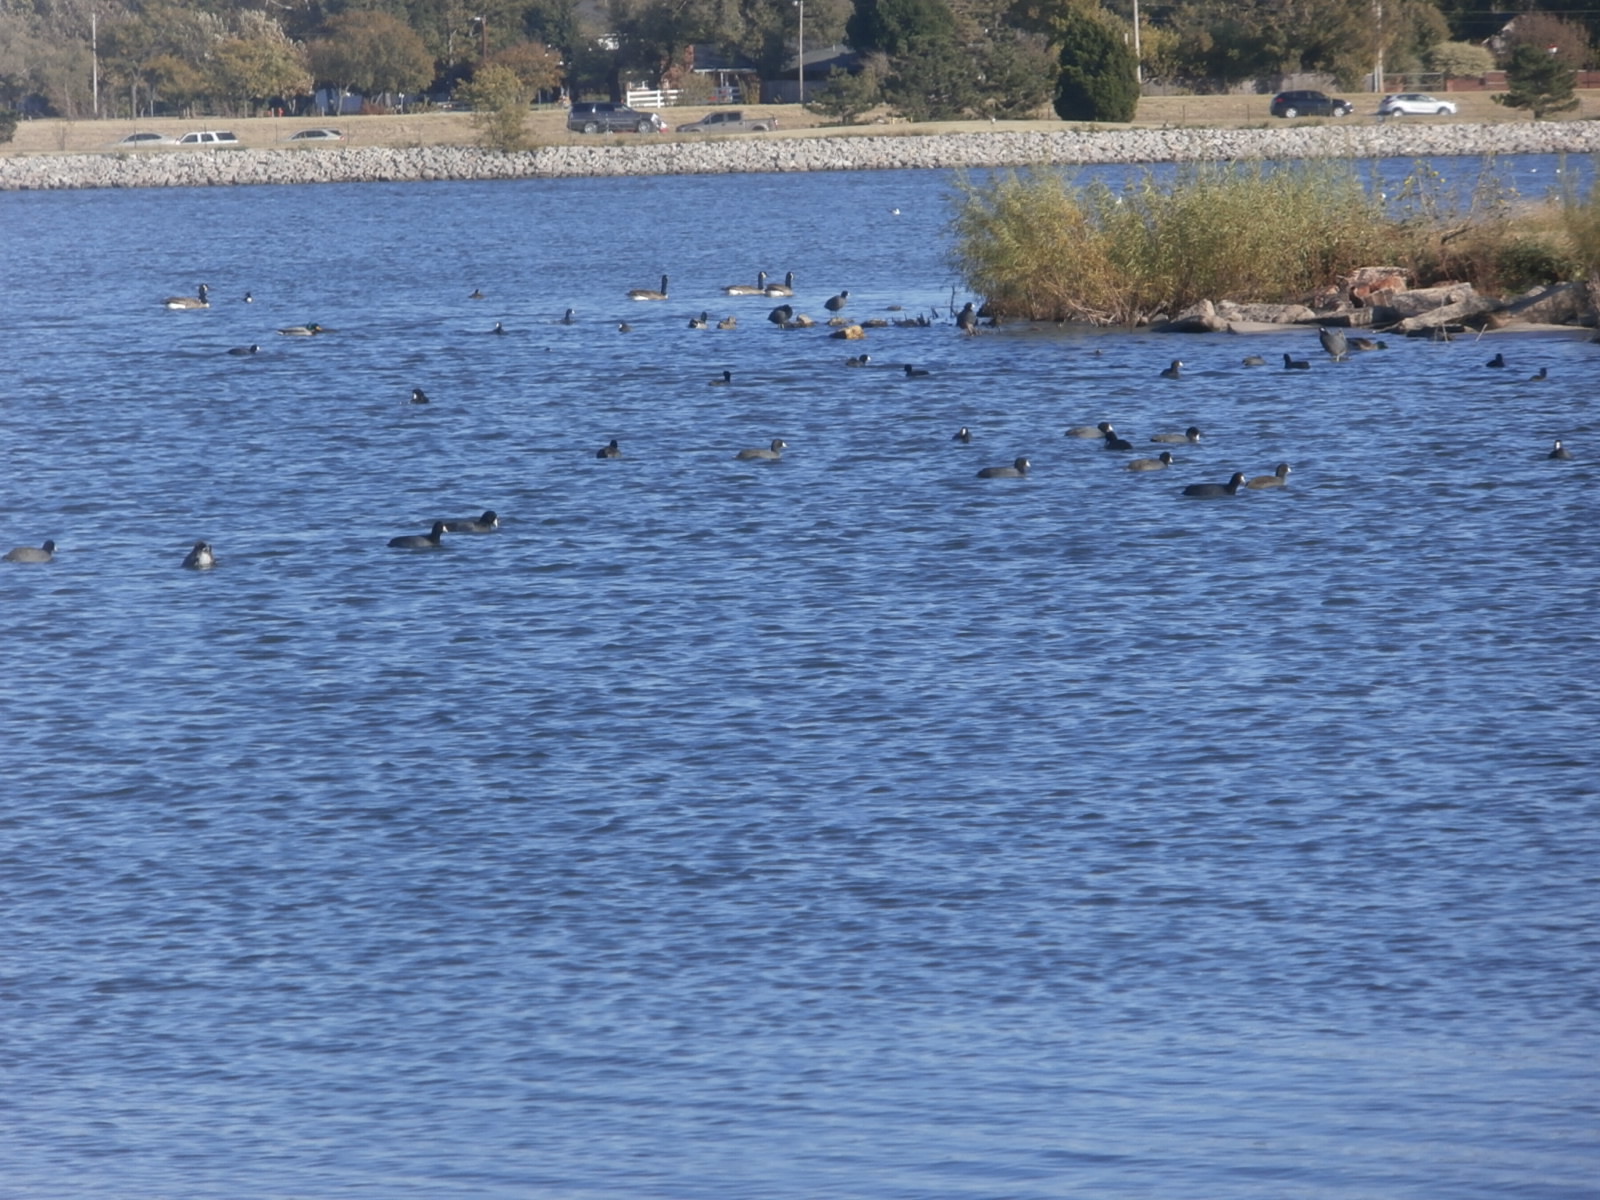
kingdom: Animalia
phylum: Chordata
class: Aves
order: Gruiformes
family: Rallidae
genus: Fulica
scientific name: Fulica americana
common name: American coot
